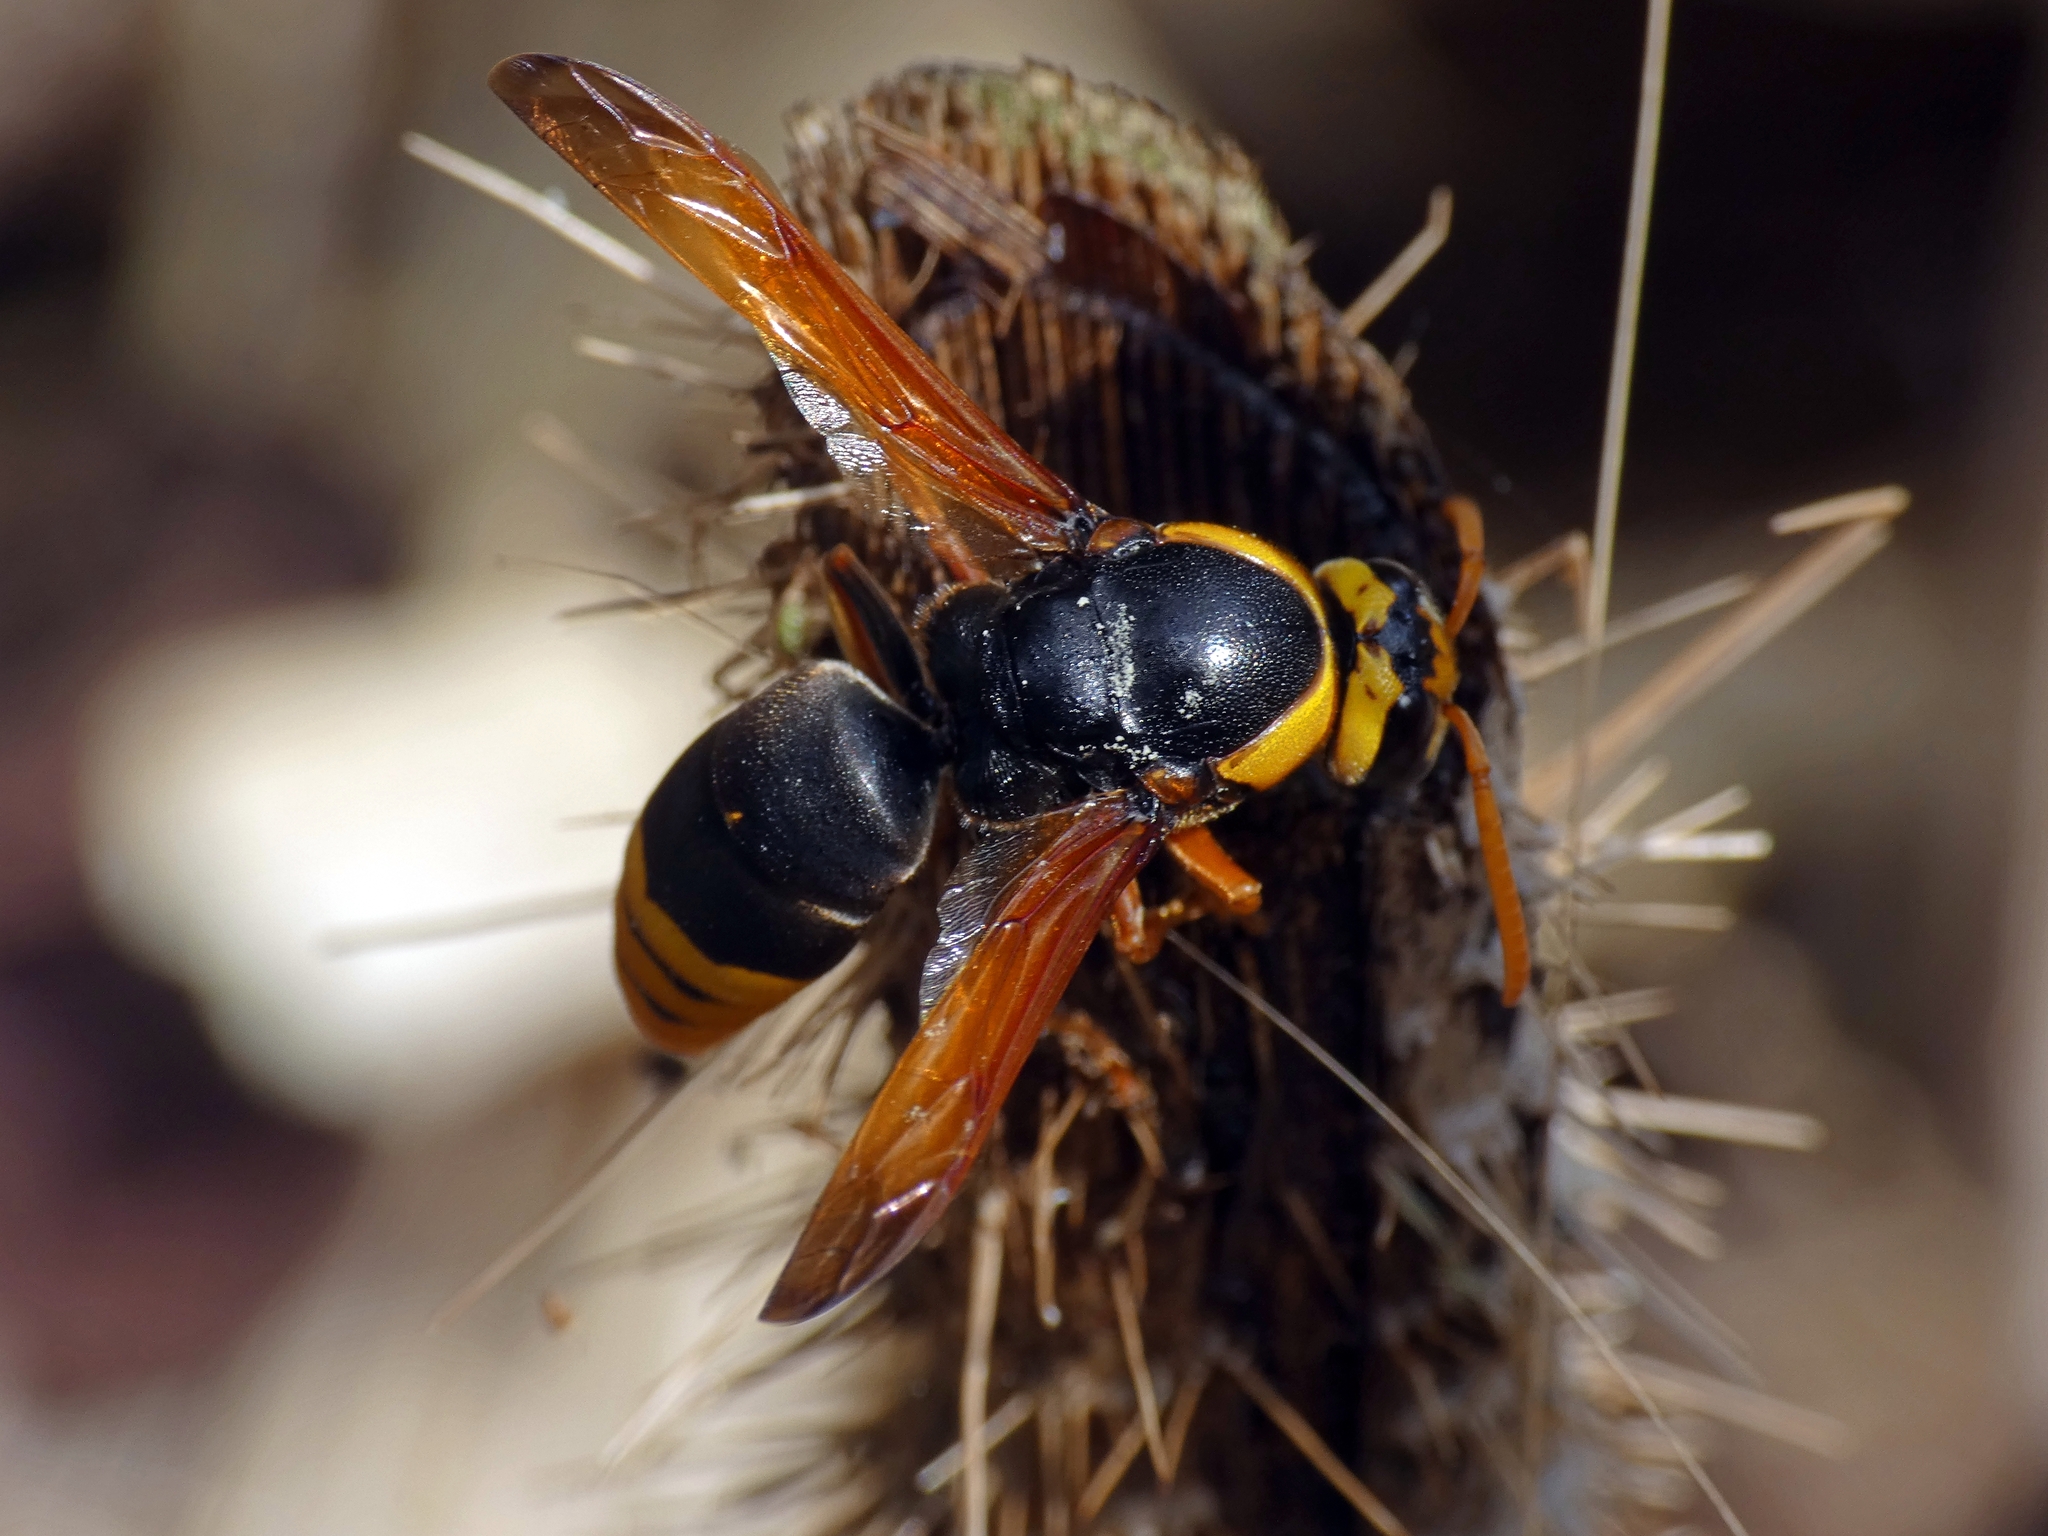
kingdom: Animalia
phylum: Arthropoda
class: Insecta
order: Hymenoptera
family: Eumenidae
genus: Rhynchium
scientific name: Rhynchium superbum
